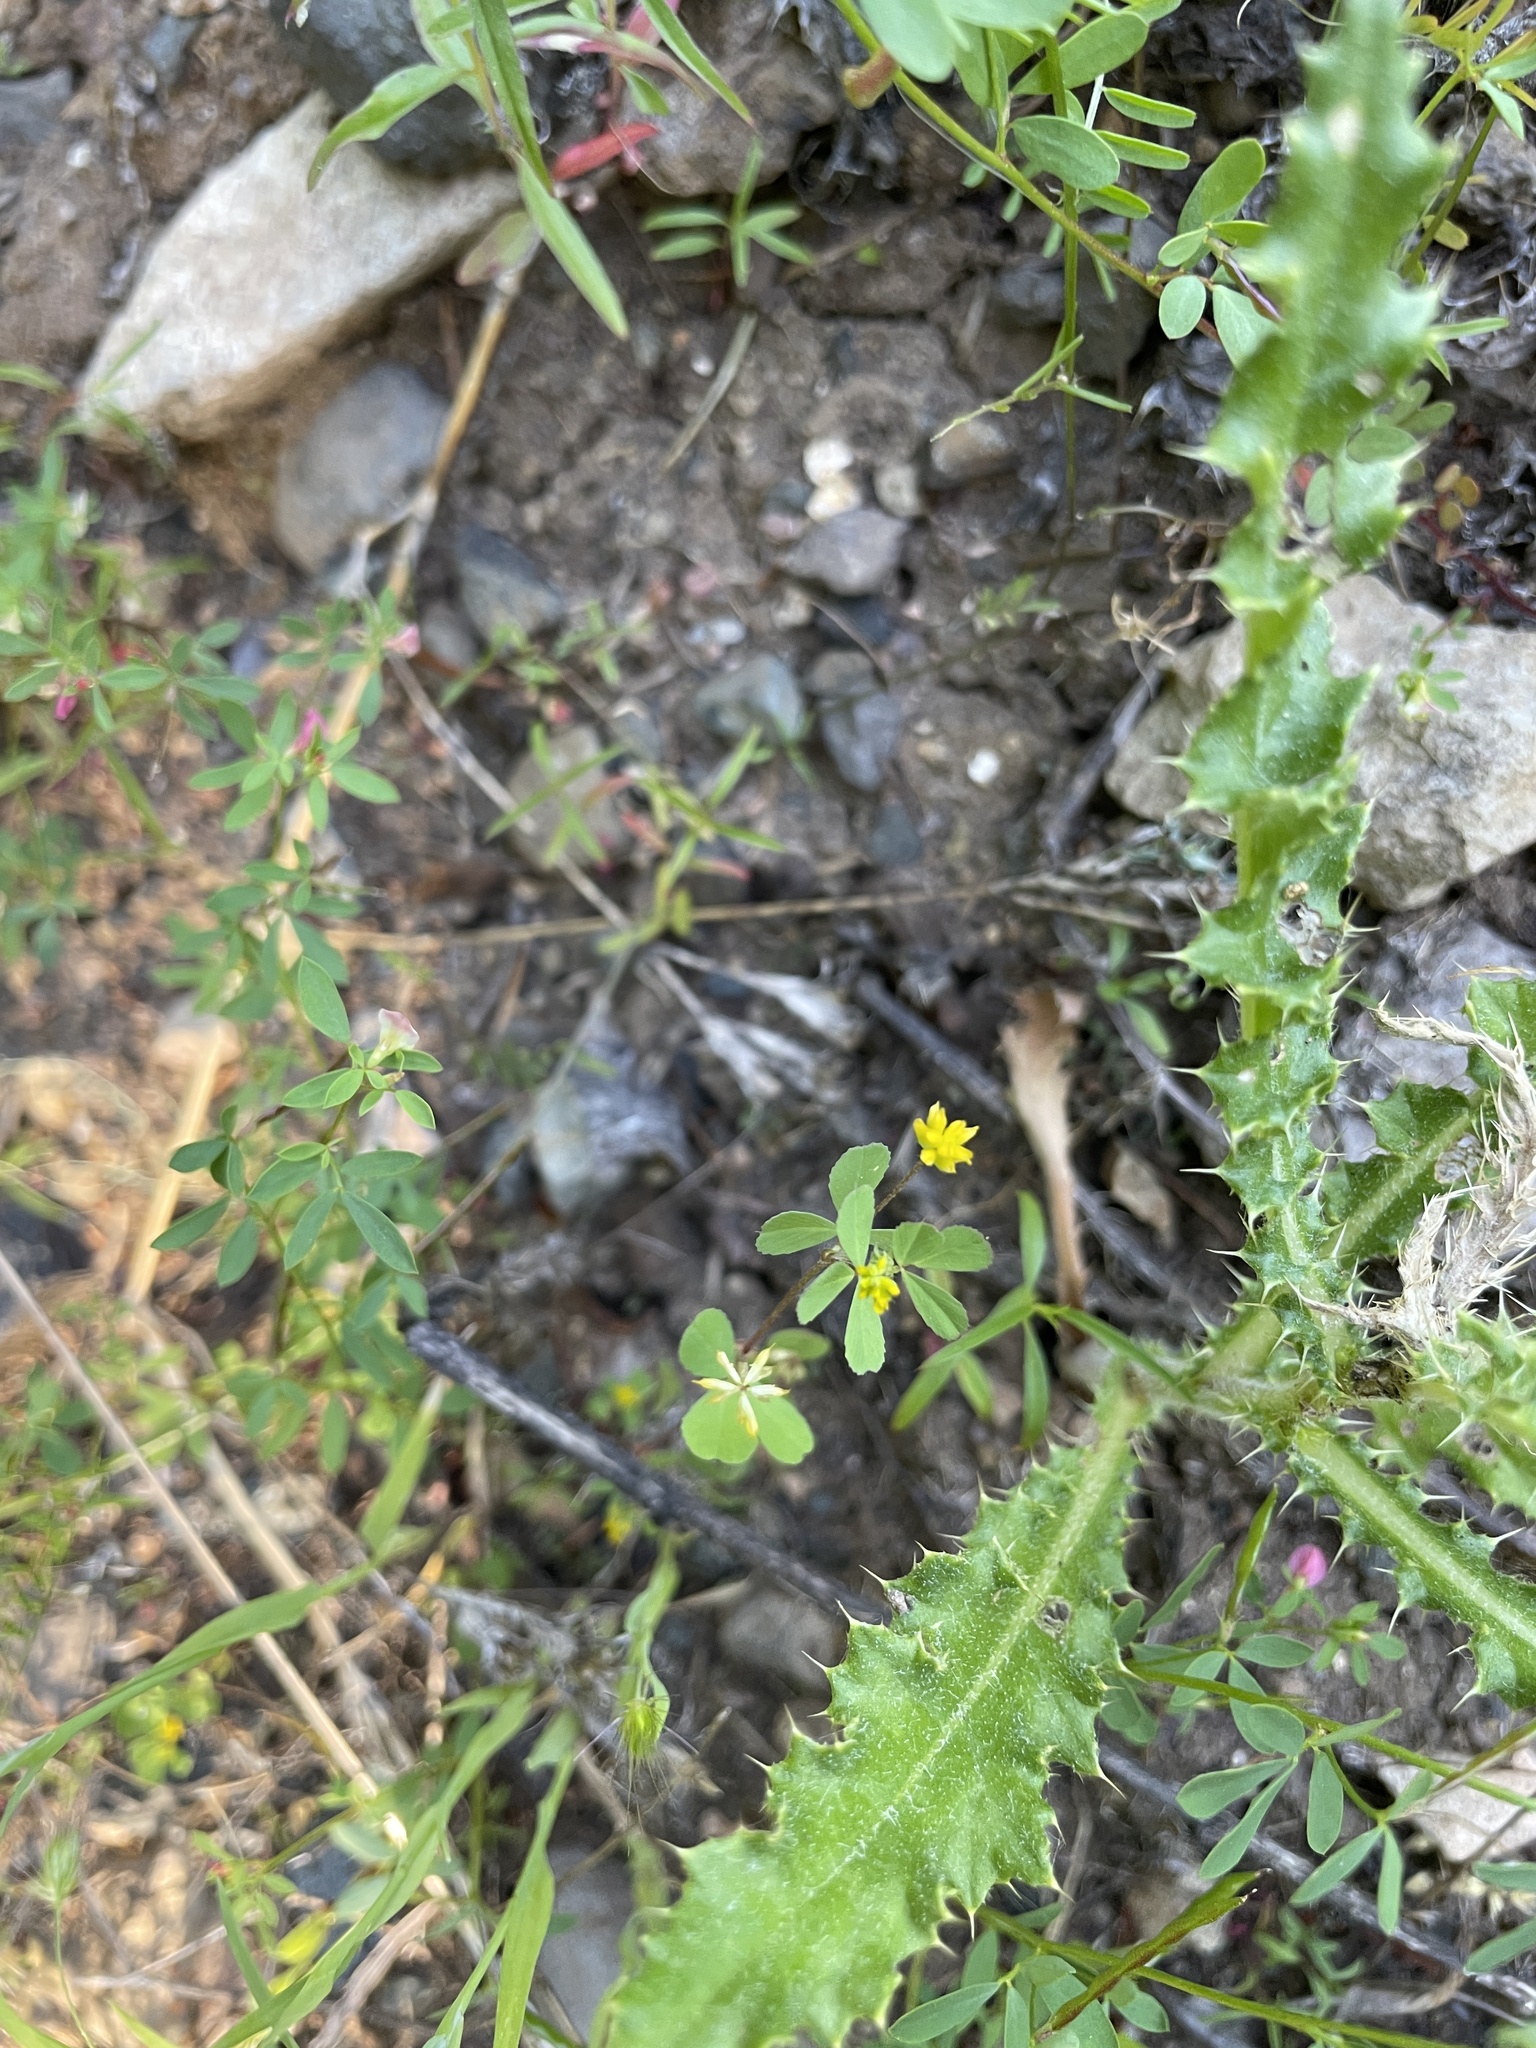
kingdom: Plantae
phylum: Tracheophyta
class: Magnoliopsida
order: Fabales
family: Fabaceae
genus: Trifolium
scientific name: Trifolium dubium
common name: Suckling clover
